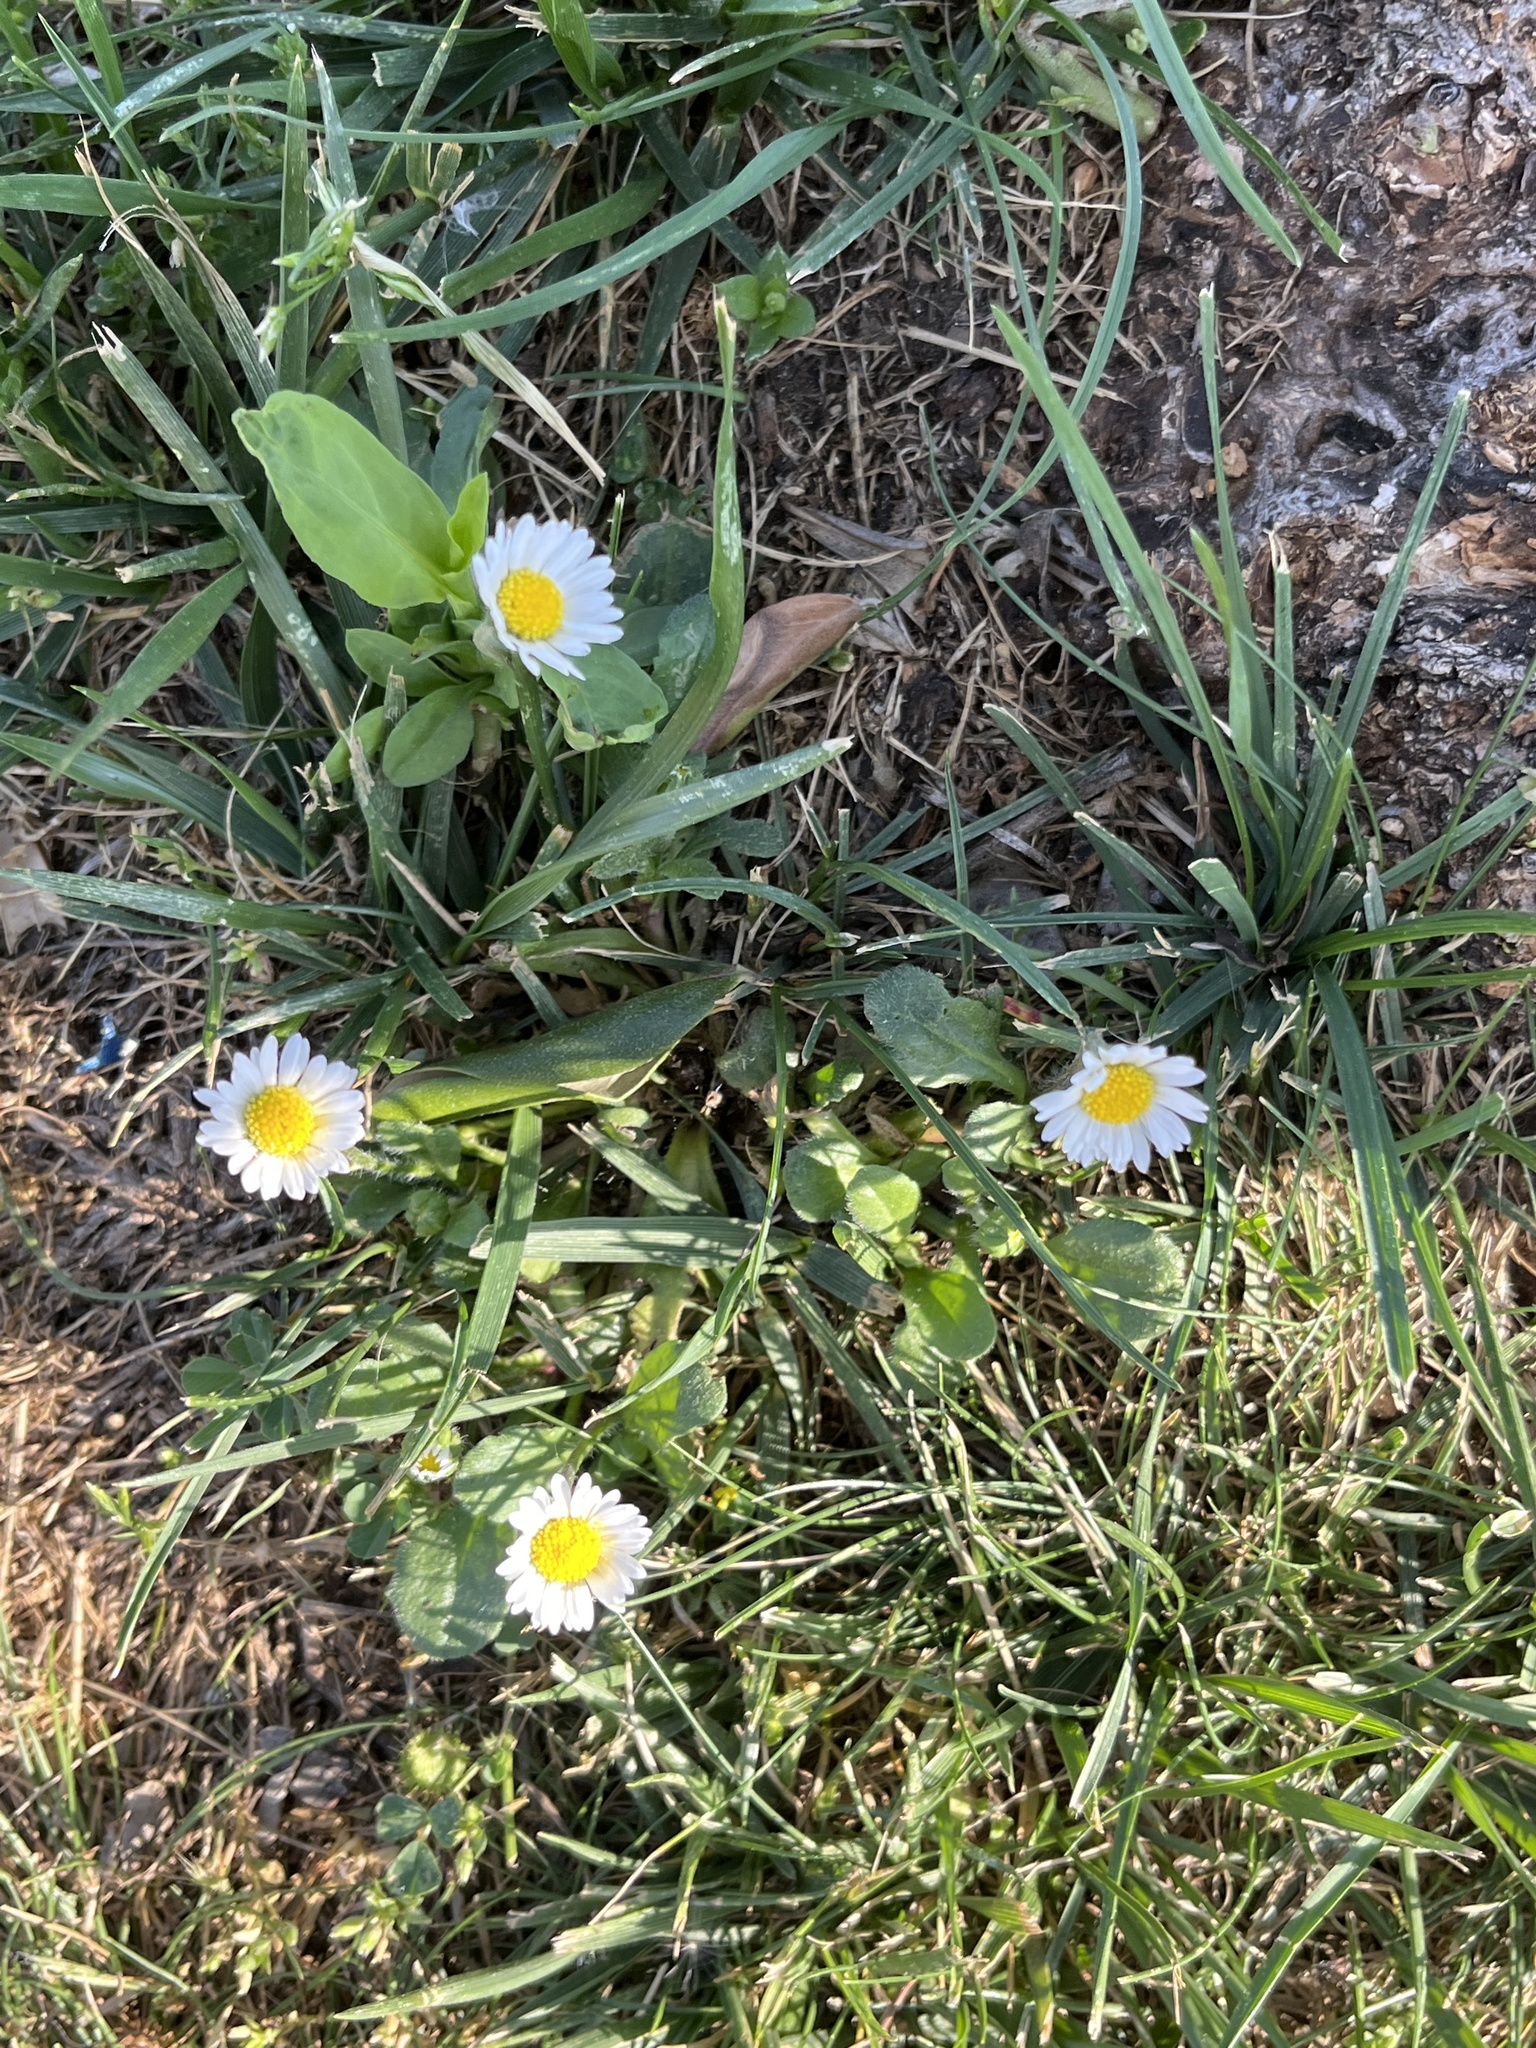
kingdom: Plantae
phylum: Tracheophyta
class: Magnoliopsida
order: Asterales
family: Asteraceae
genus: Bellis
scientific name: Bellis perennis
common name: Lawndaisy
